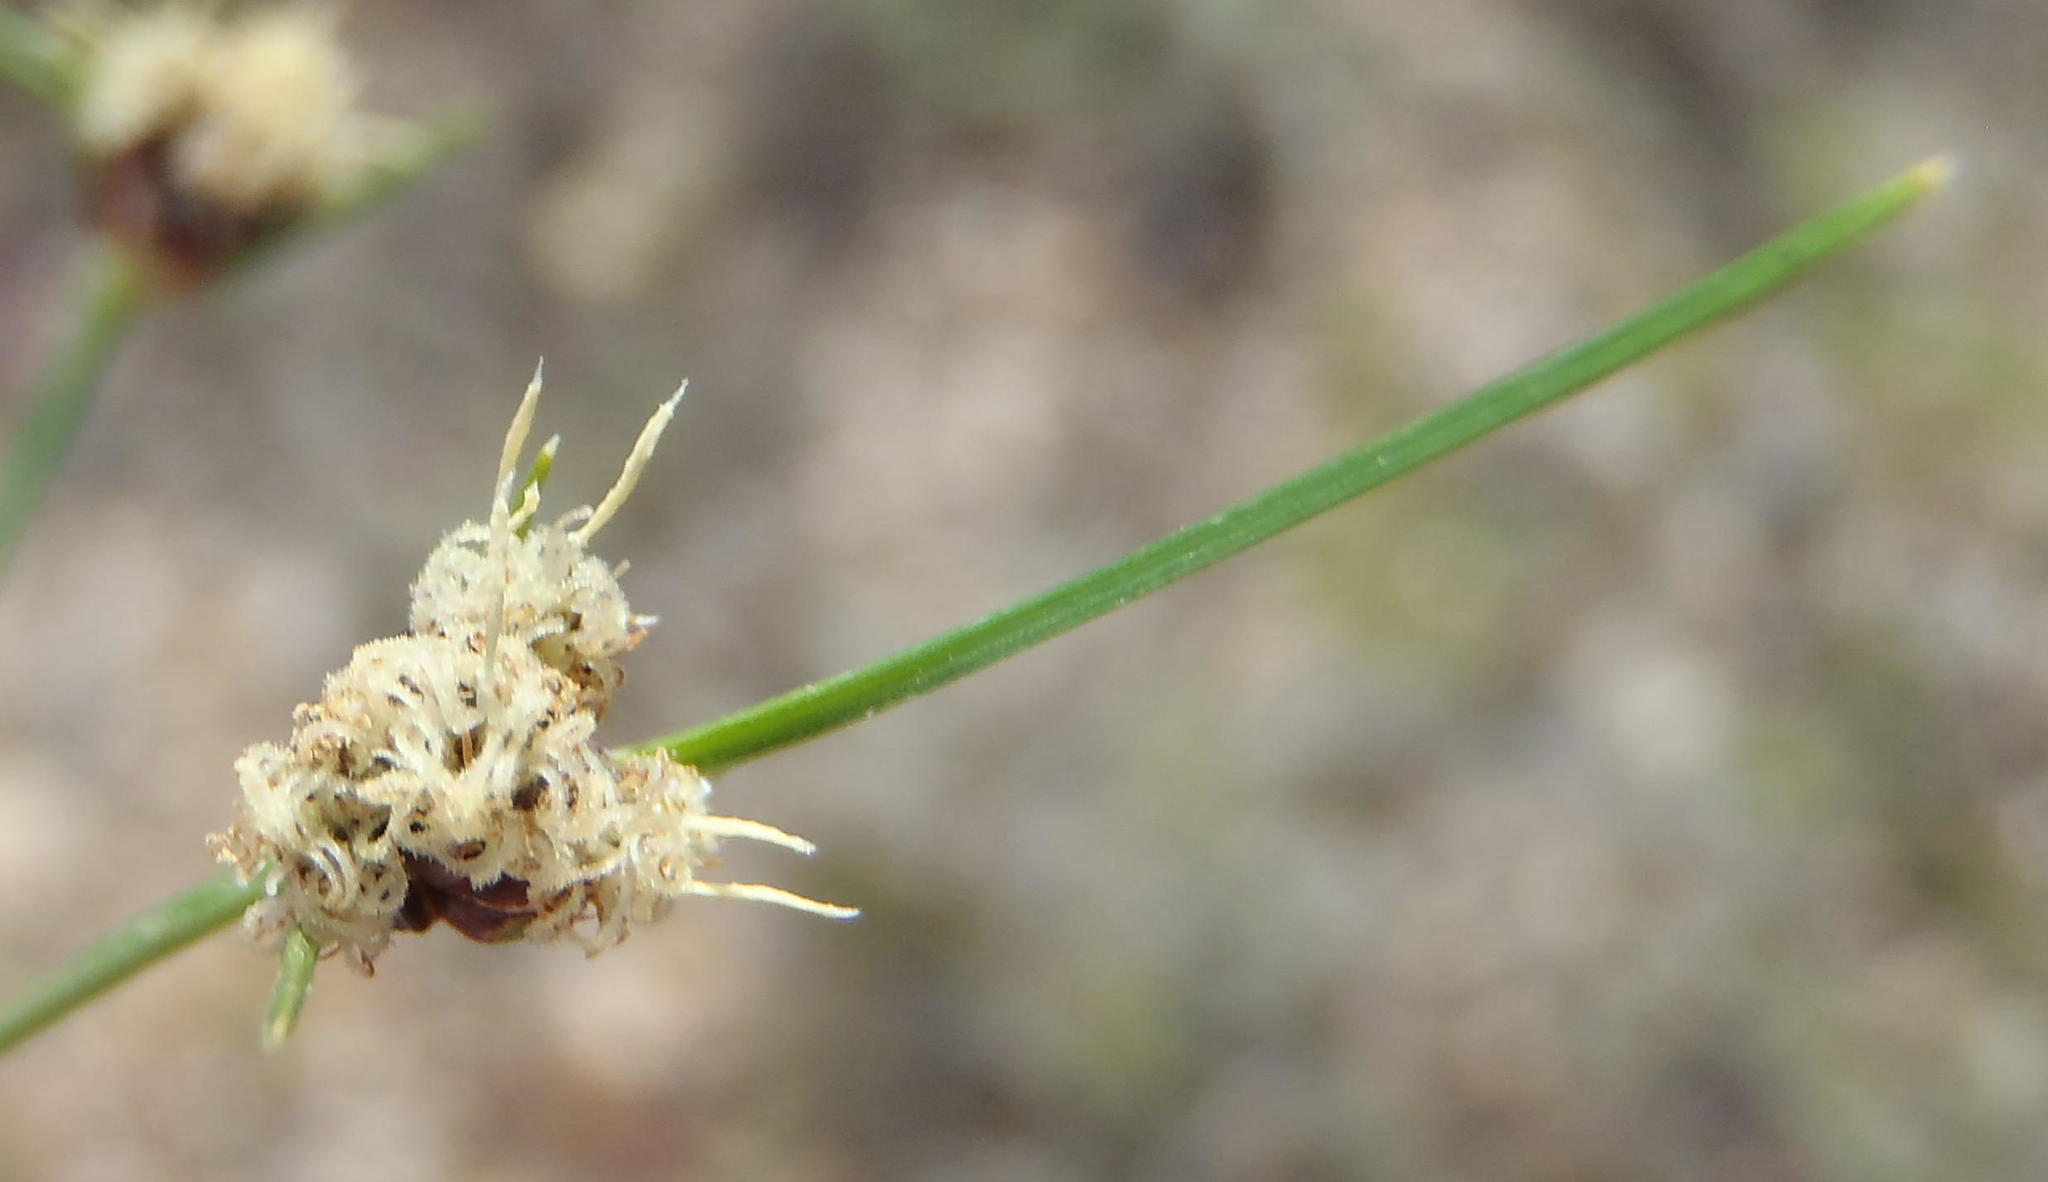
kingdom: Plantae
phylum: Tracheophyta
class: Liliopsida
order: Poales
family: Cyperaceae
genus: Ficinia
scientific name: Ficinia indica
